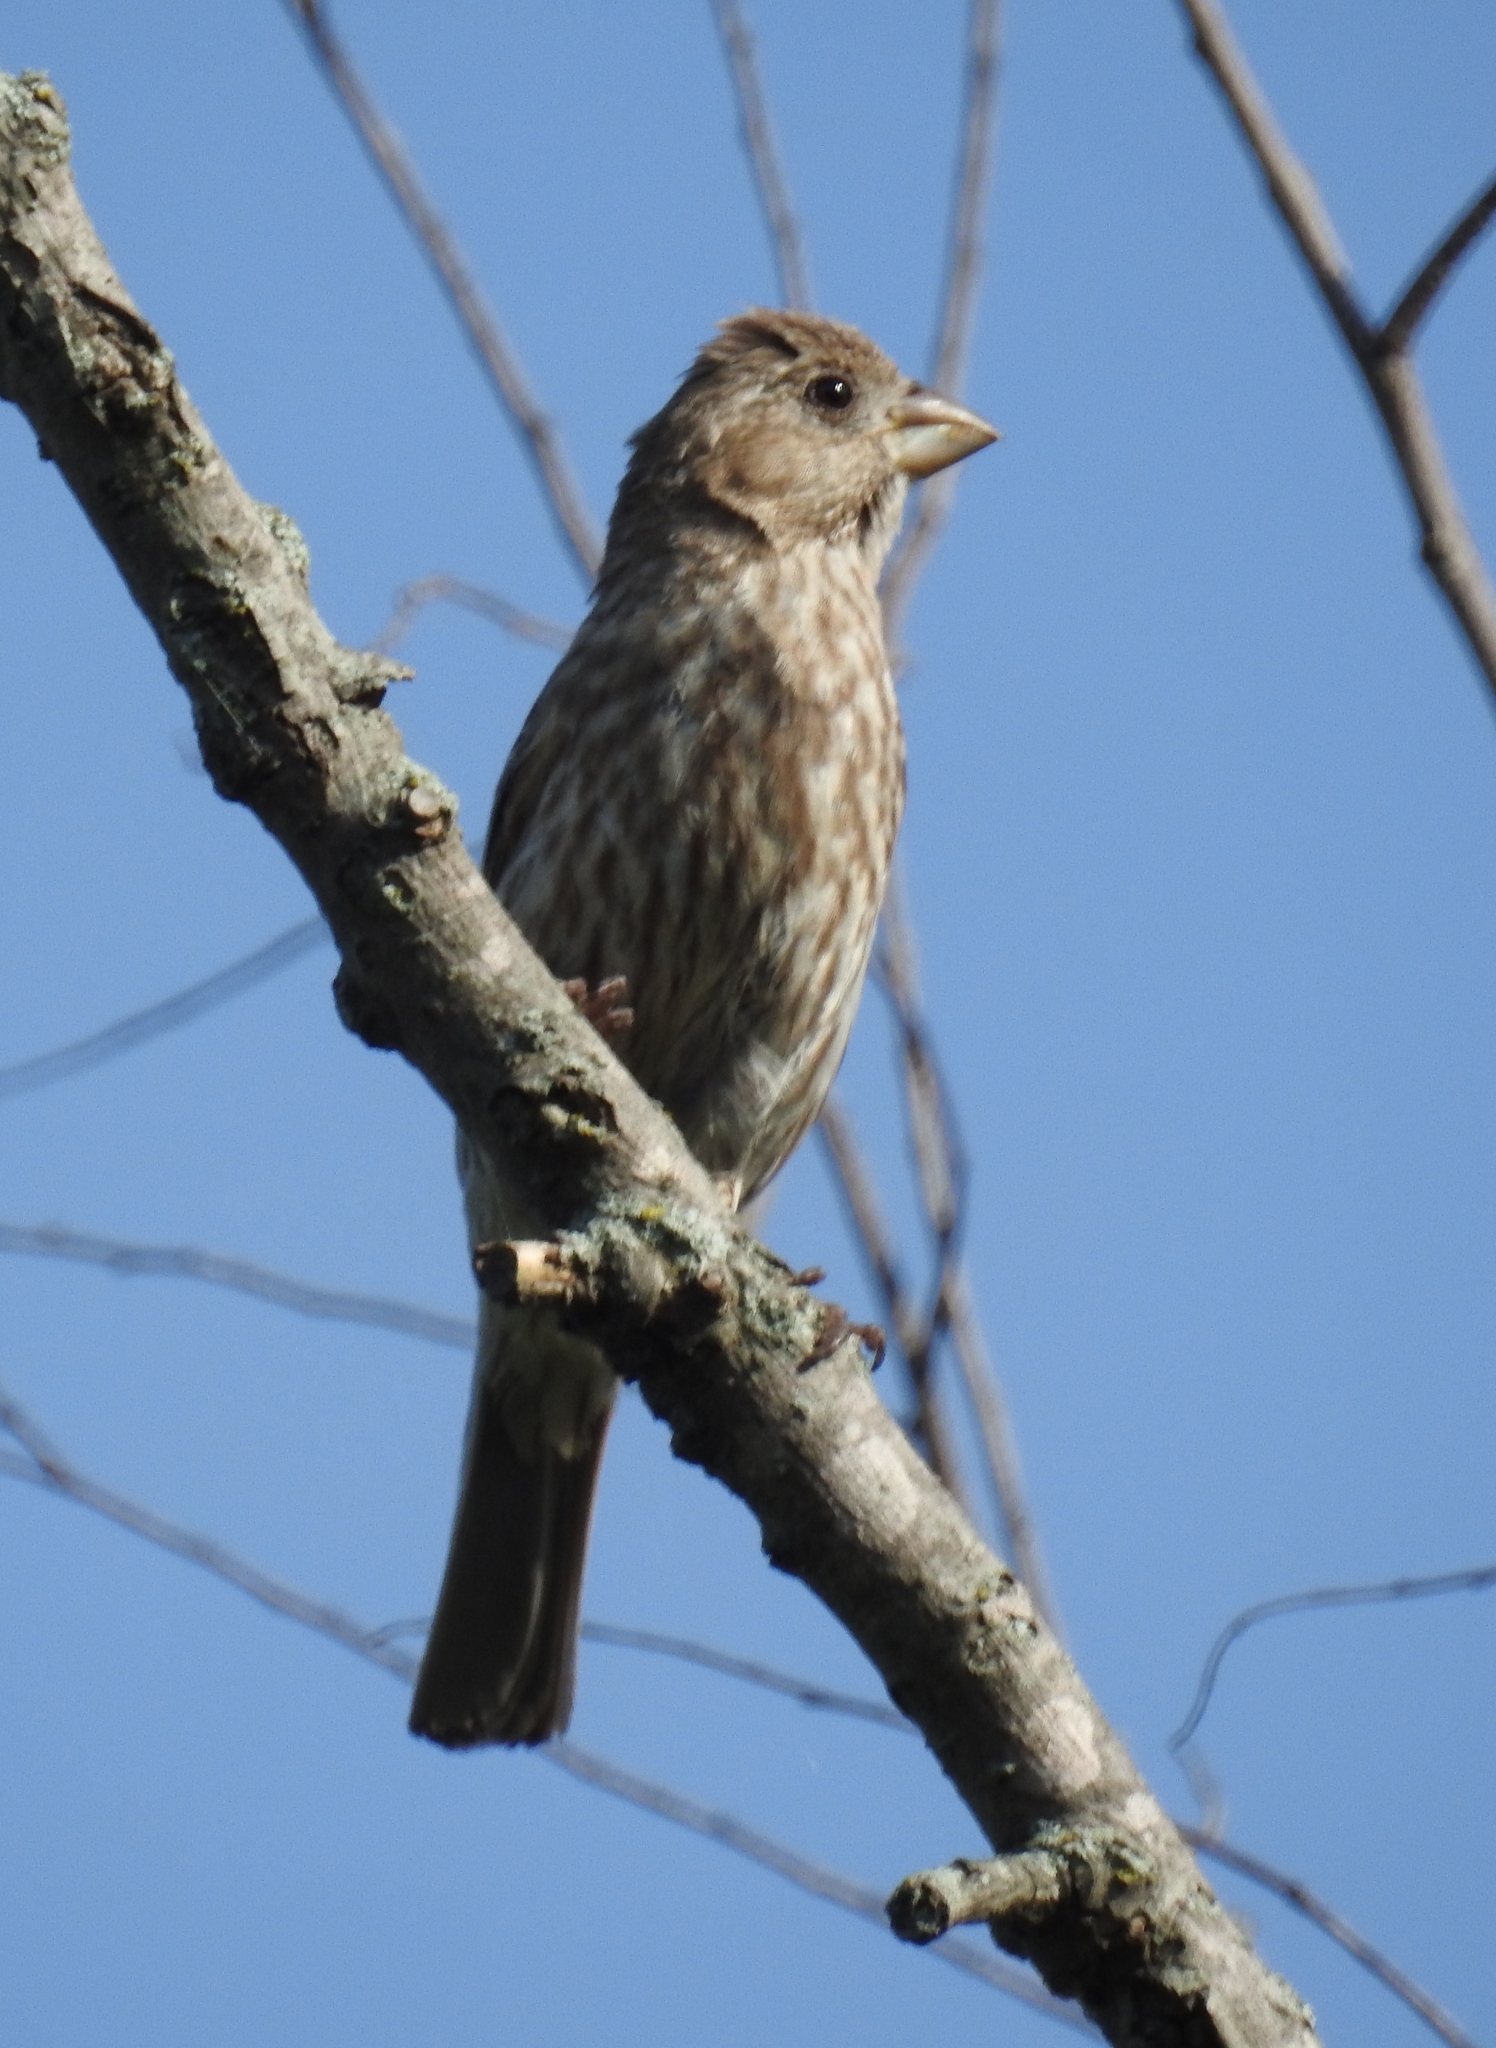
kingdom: Animalia
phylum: Chordata
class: Aves
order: Passeriformes
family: Fringillidae
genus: Haemorhous
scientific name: Haemorhous mexicanus
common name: House finch
